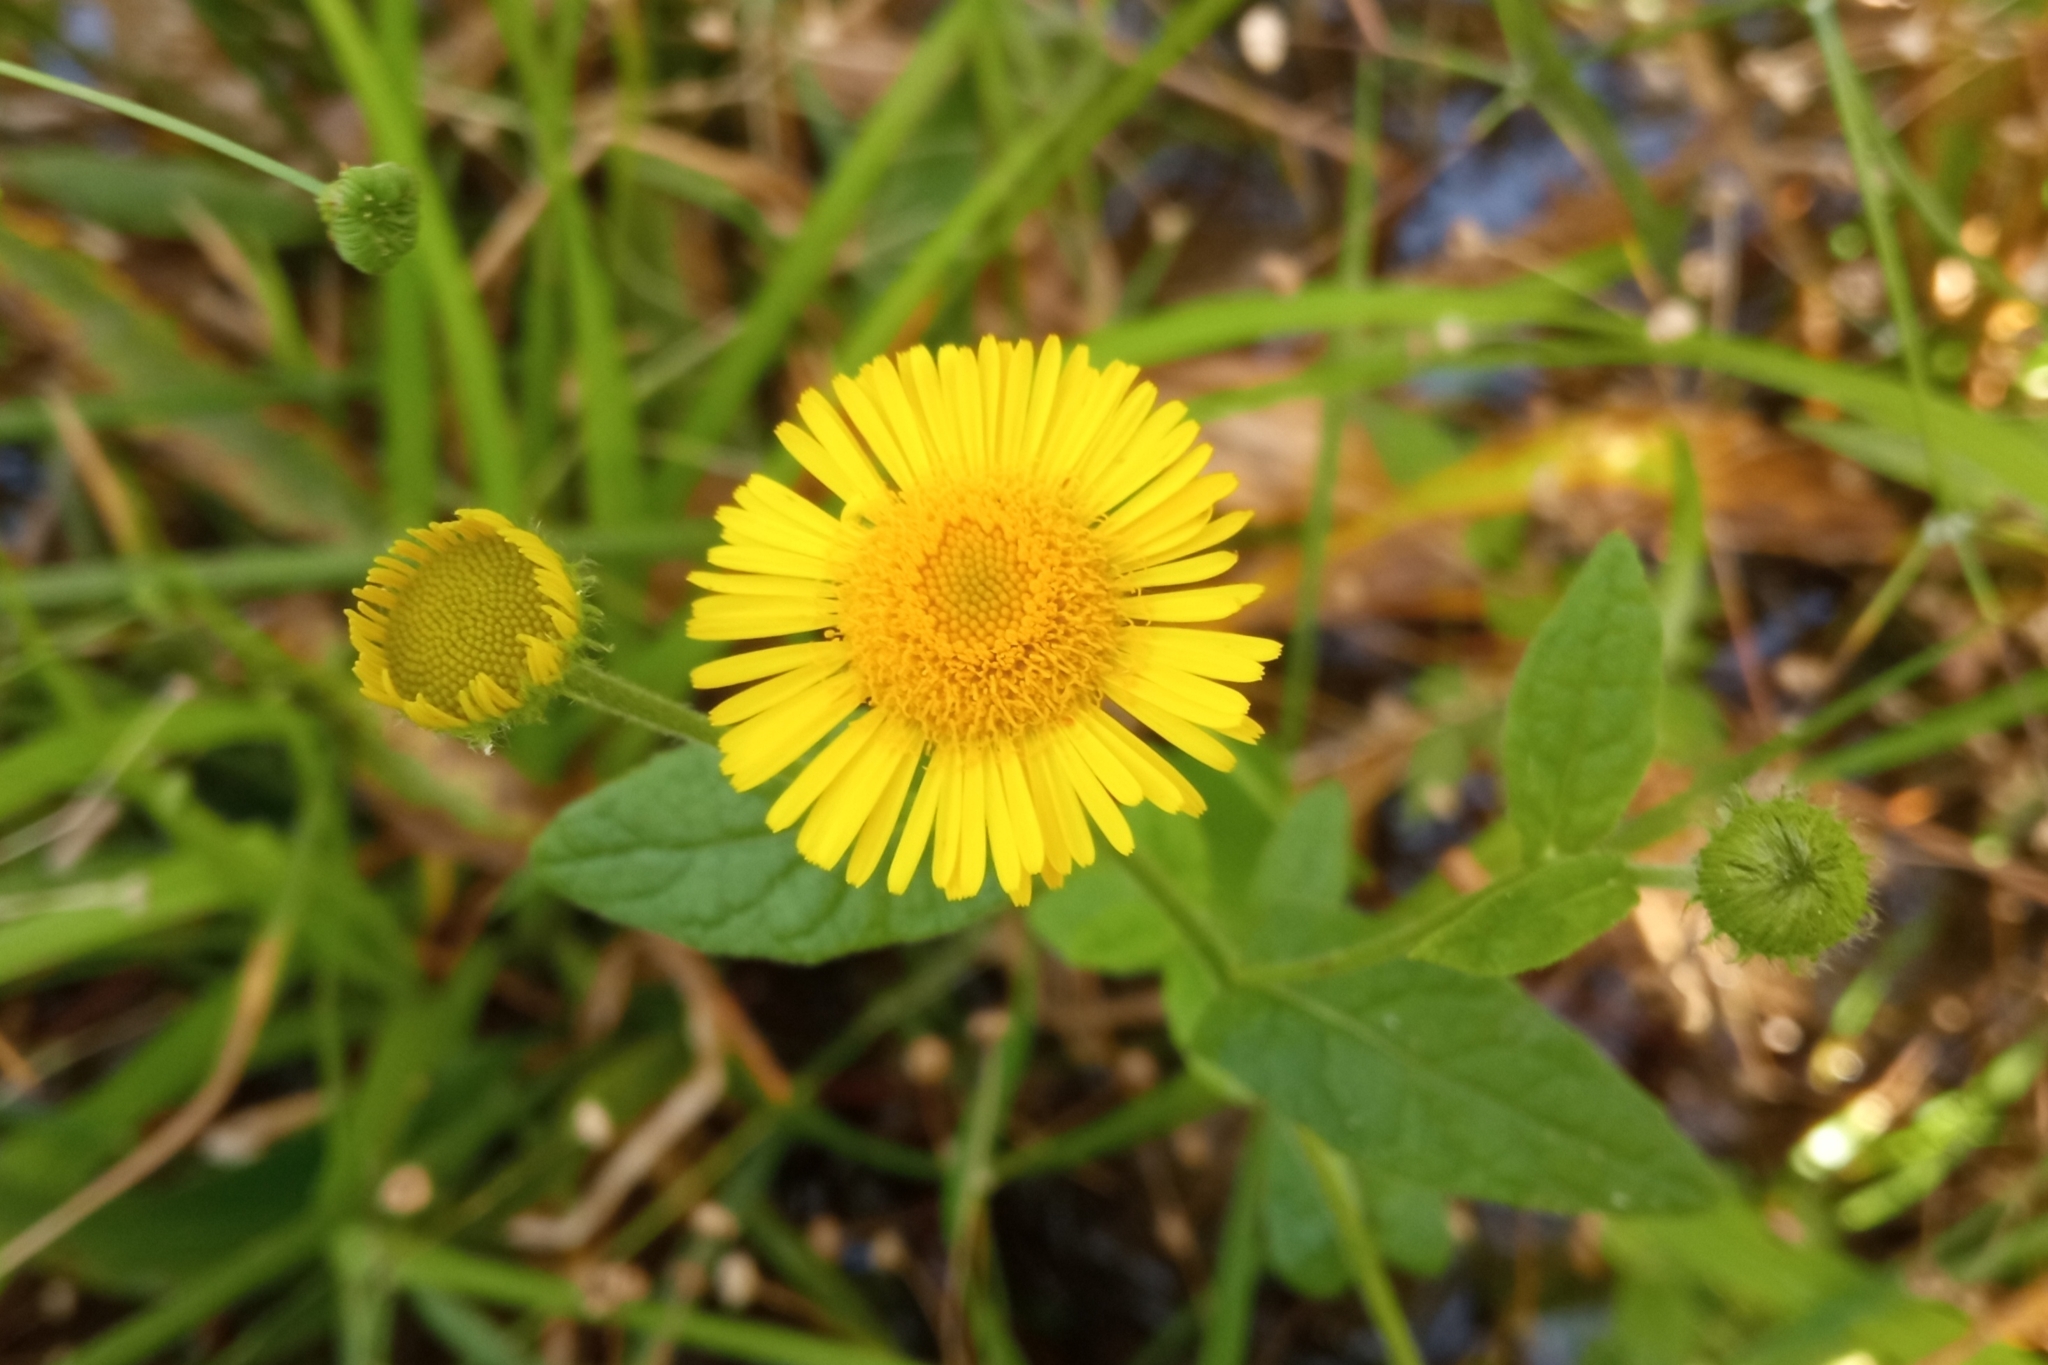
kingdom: Plantae
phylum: Tracheophyta
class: Magnoliopsida
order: Asterales
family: Asteraceae
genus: Pulicaria
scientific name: Pulicaria dysenterica
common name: Common fleabane
